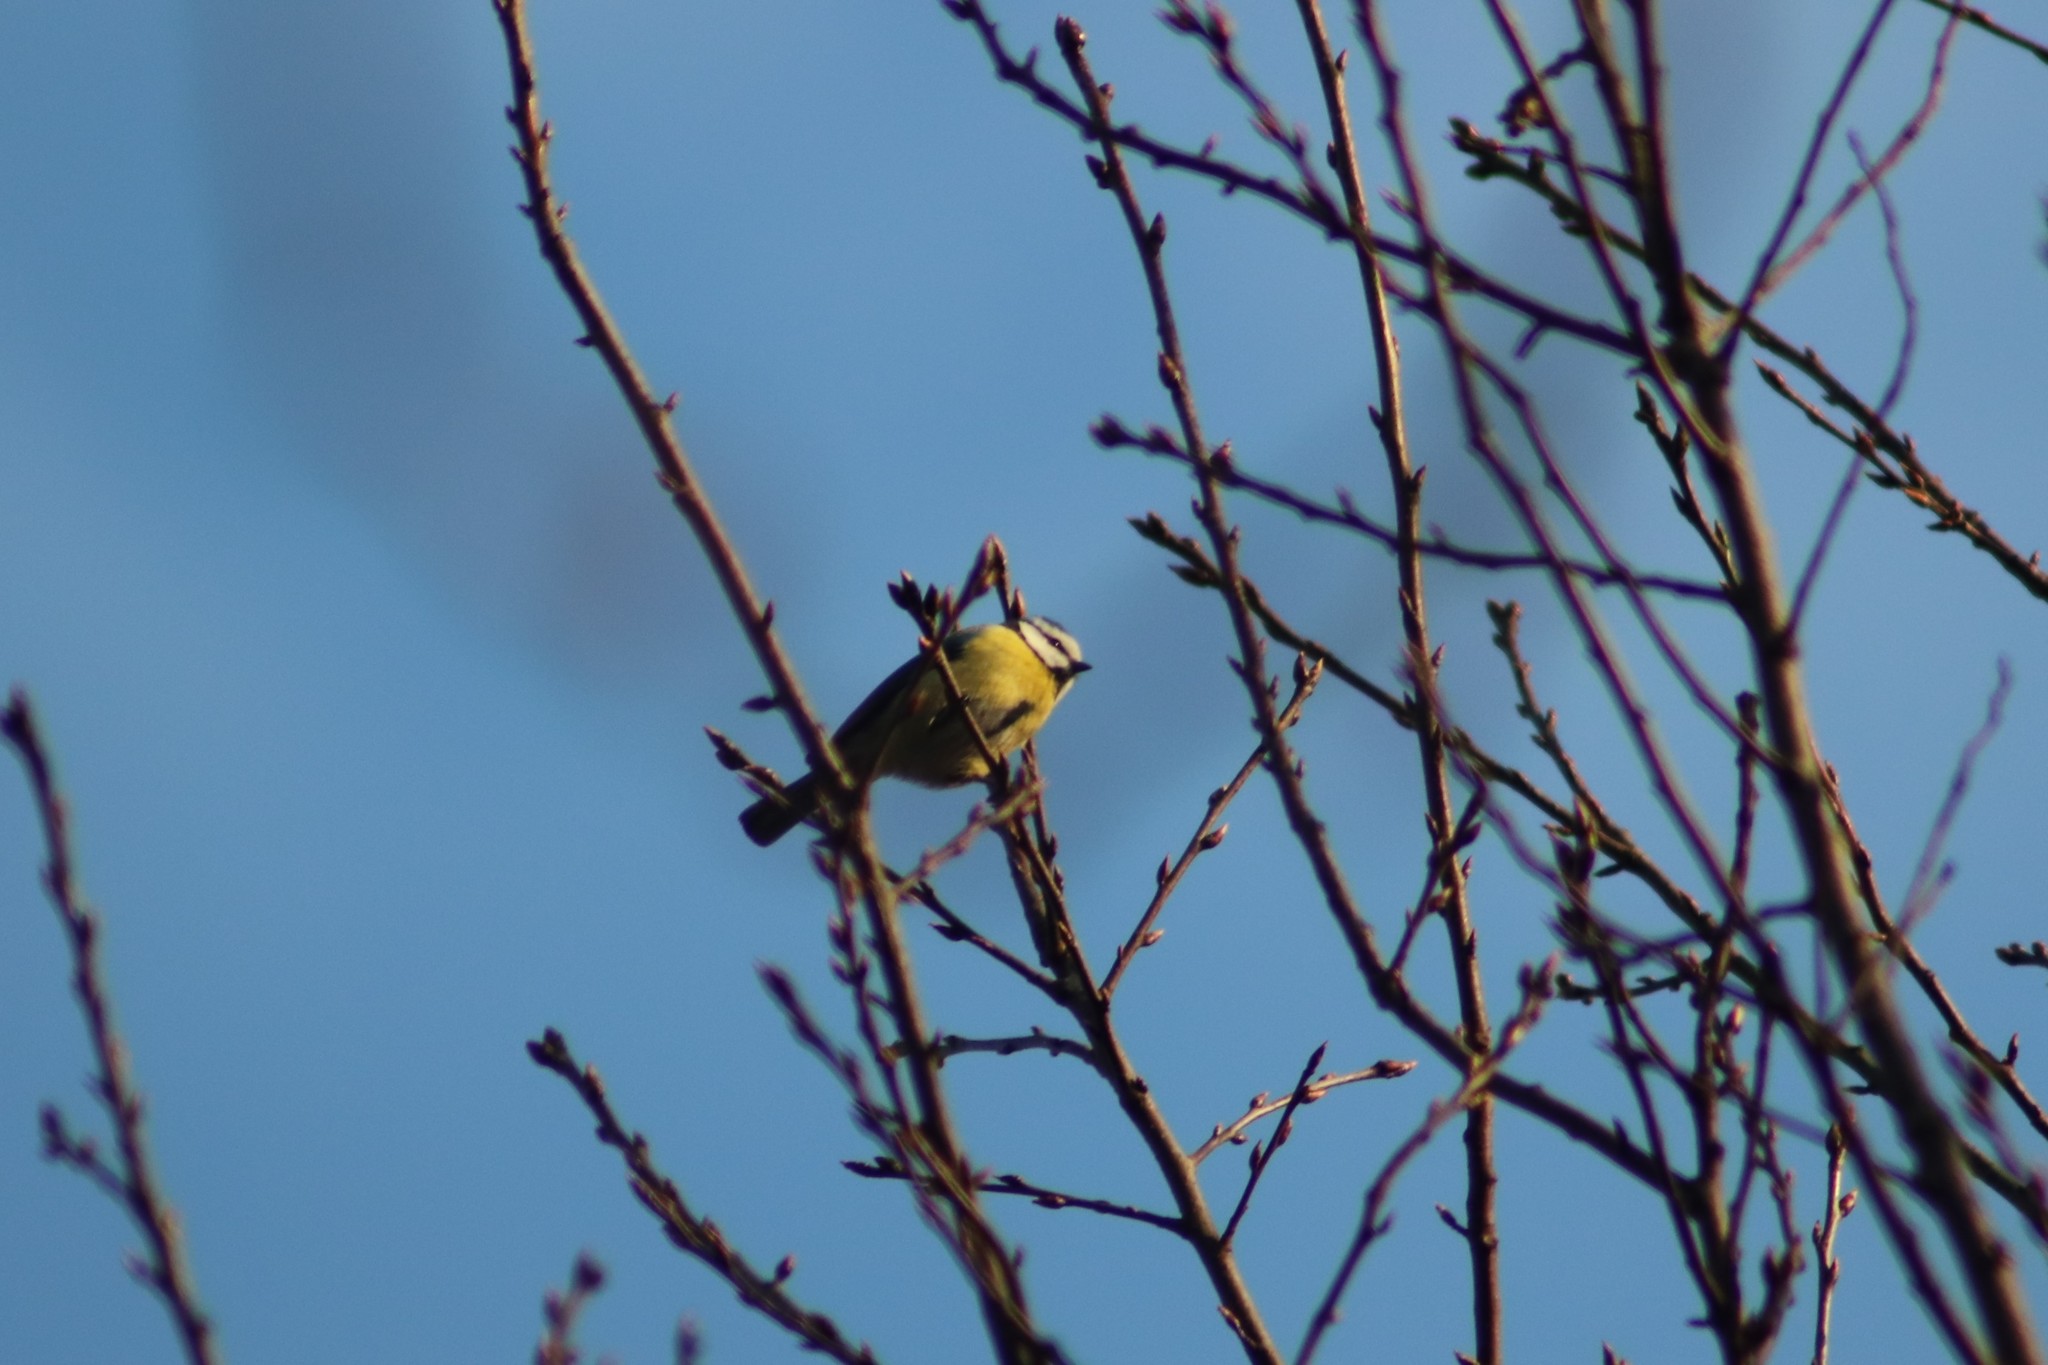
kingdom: Animalia
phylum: Chordata
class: Aves
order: Passeriformes
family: Paridae
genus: Cyanistes
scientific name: Cyanistes caeruleus
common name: Eurasian blue tit
